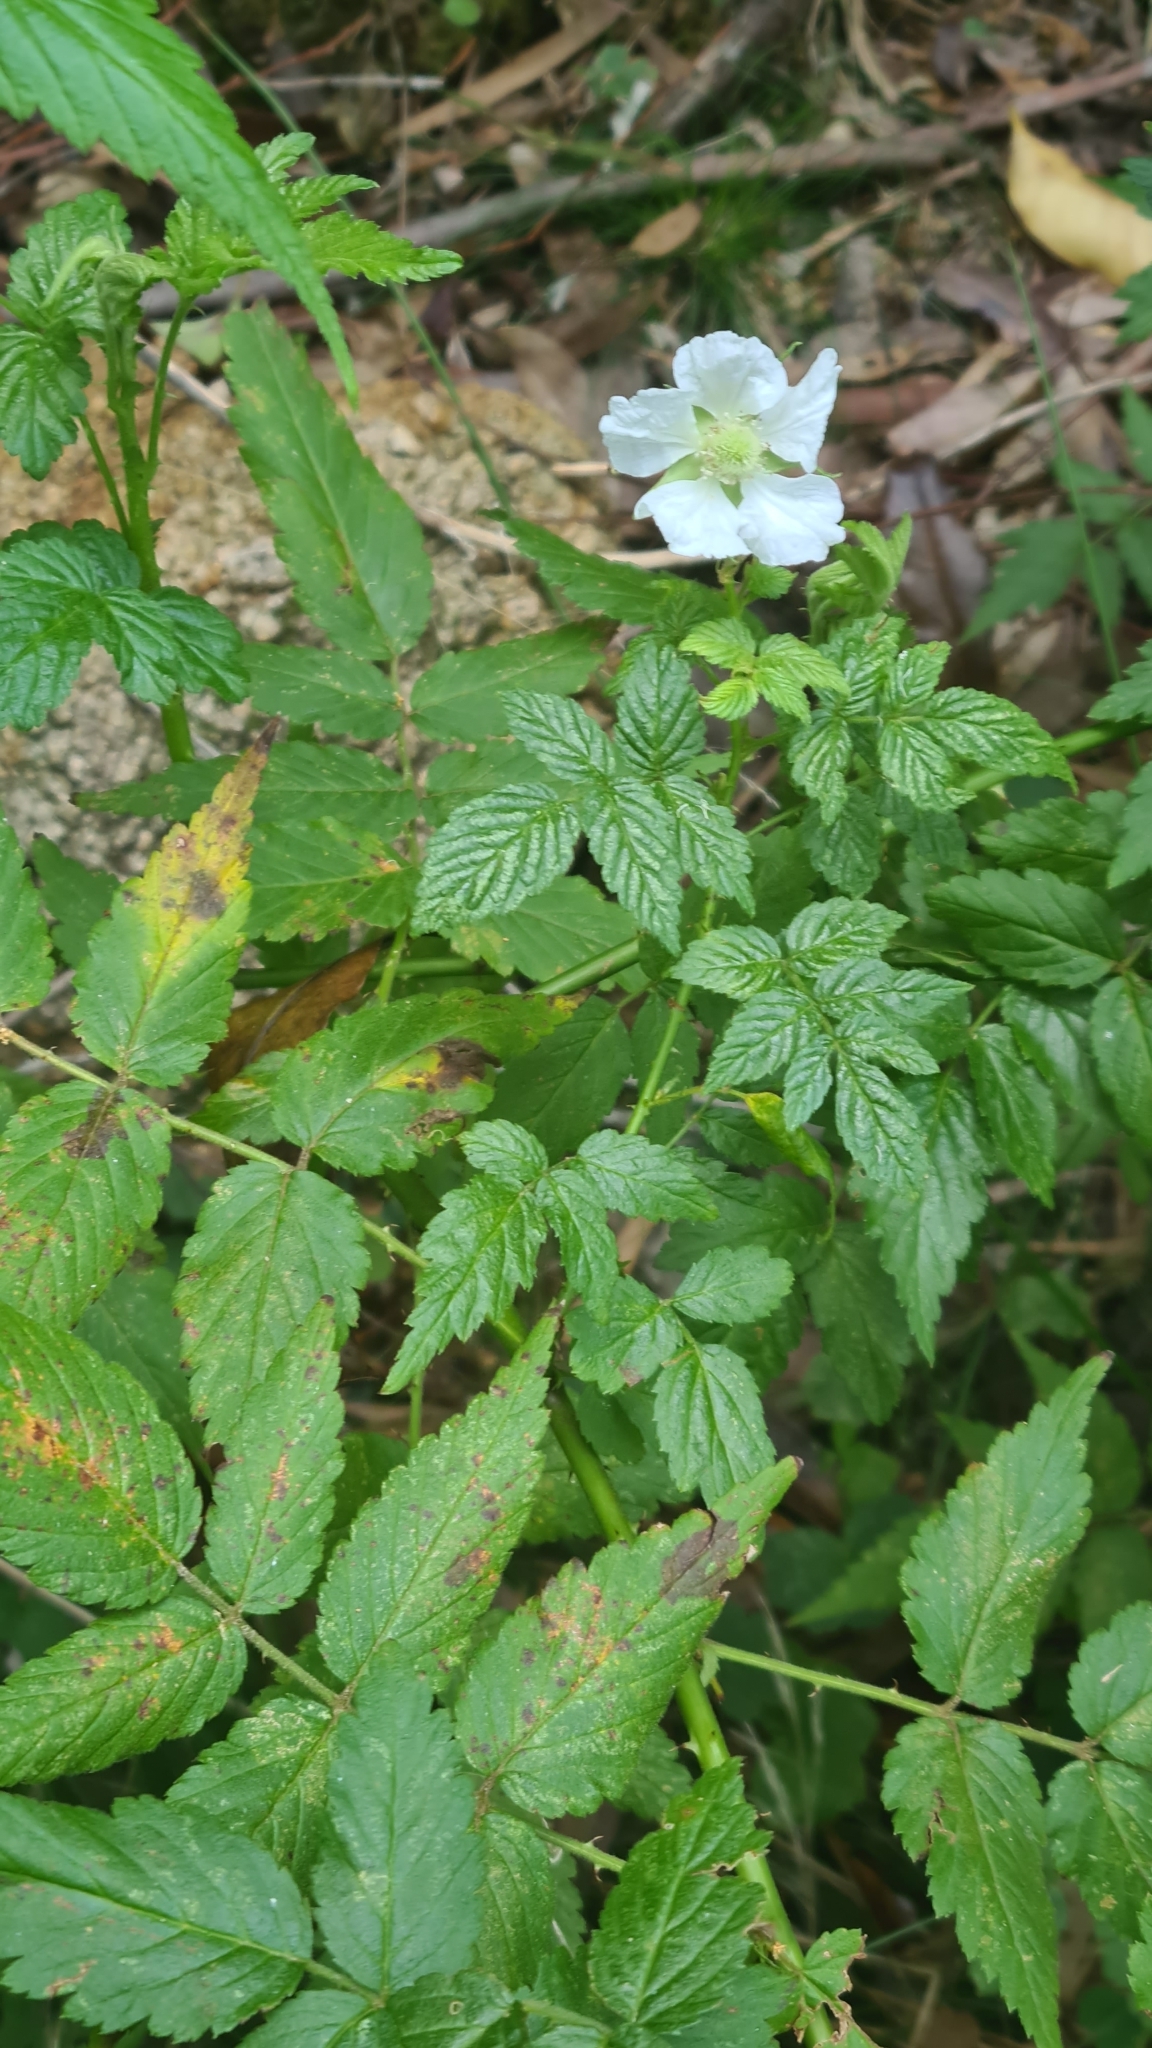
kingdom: Plantae
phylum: Tracheophyta
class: Magnoliopsida
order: Rosales
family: Rosaceae
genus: Rubus
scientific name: Rubus rosifolius
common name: Roseleaf raspberry
